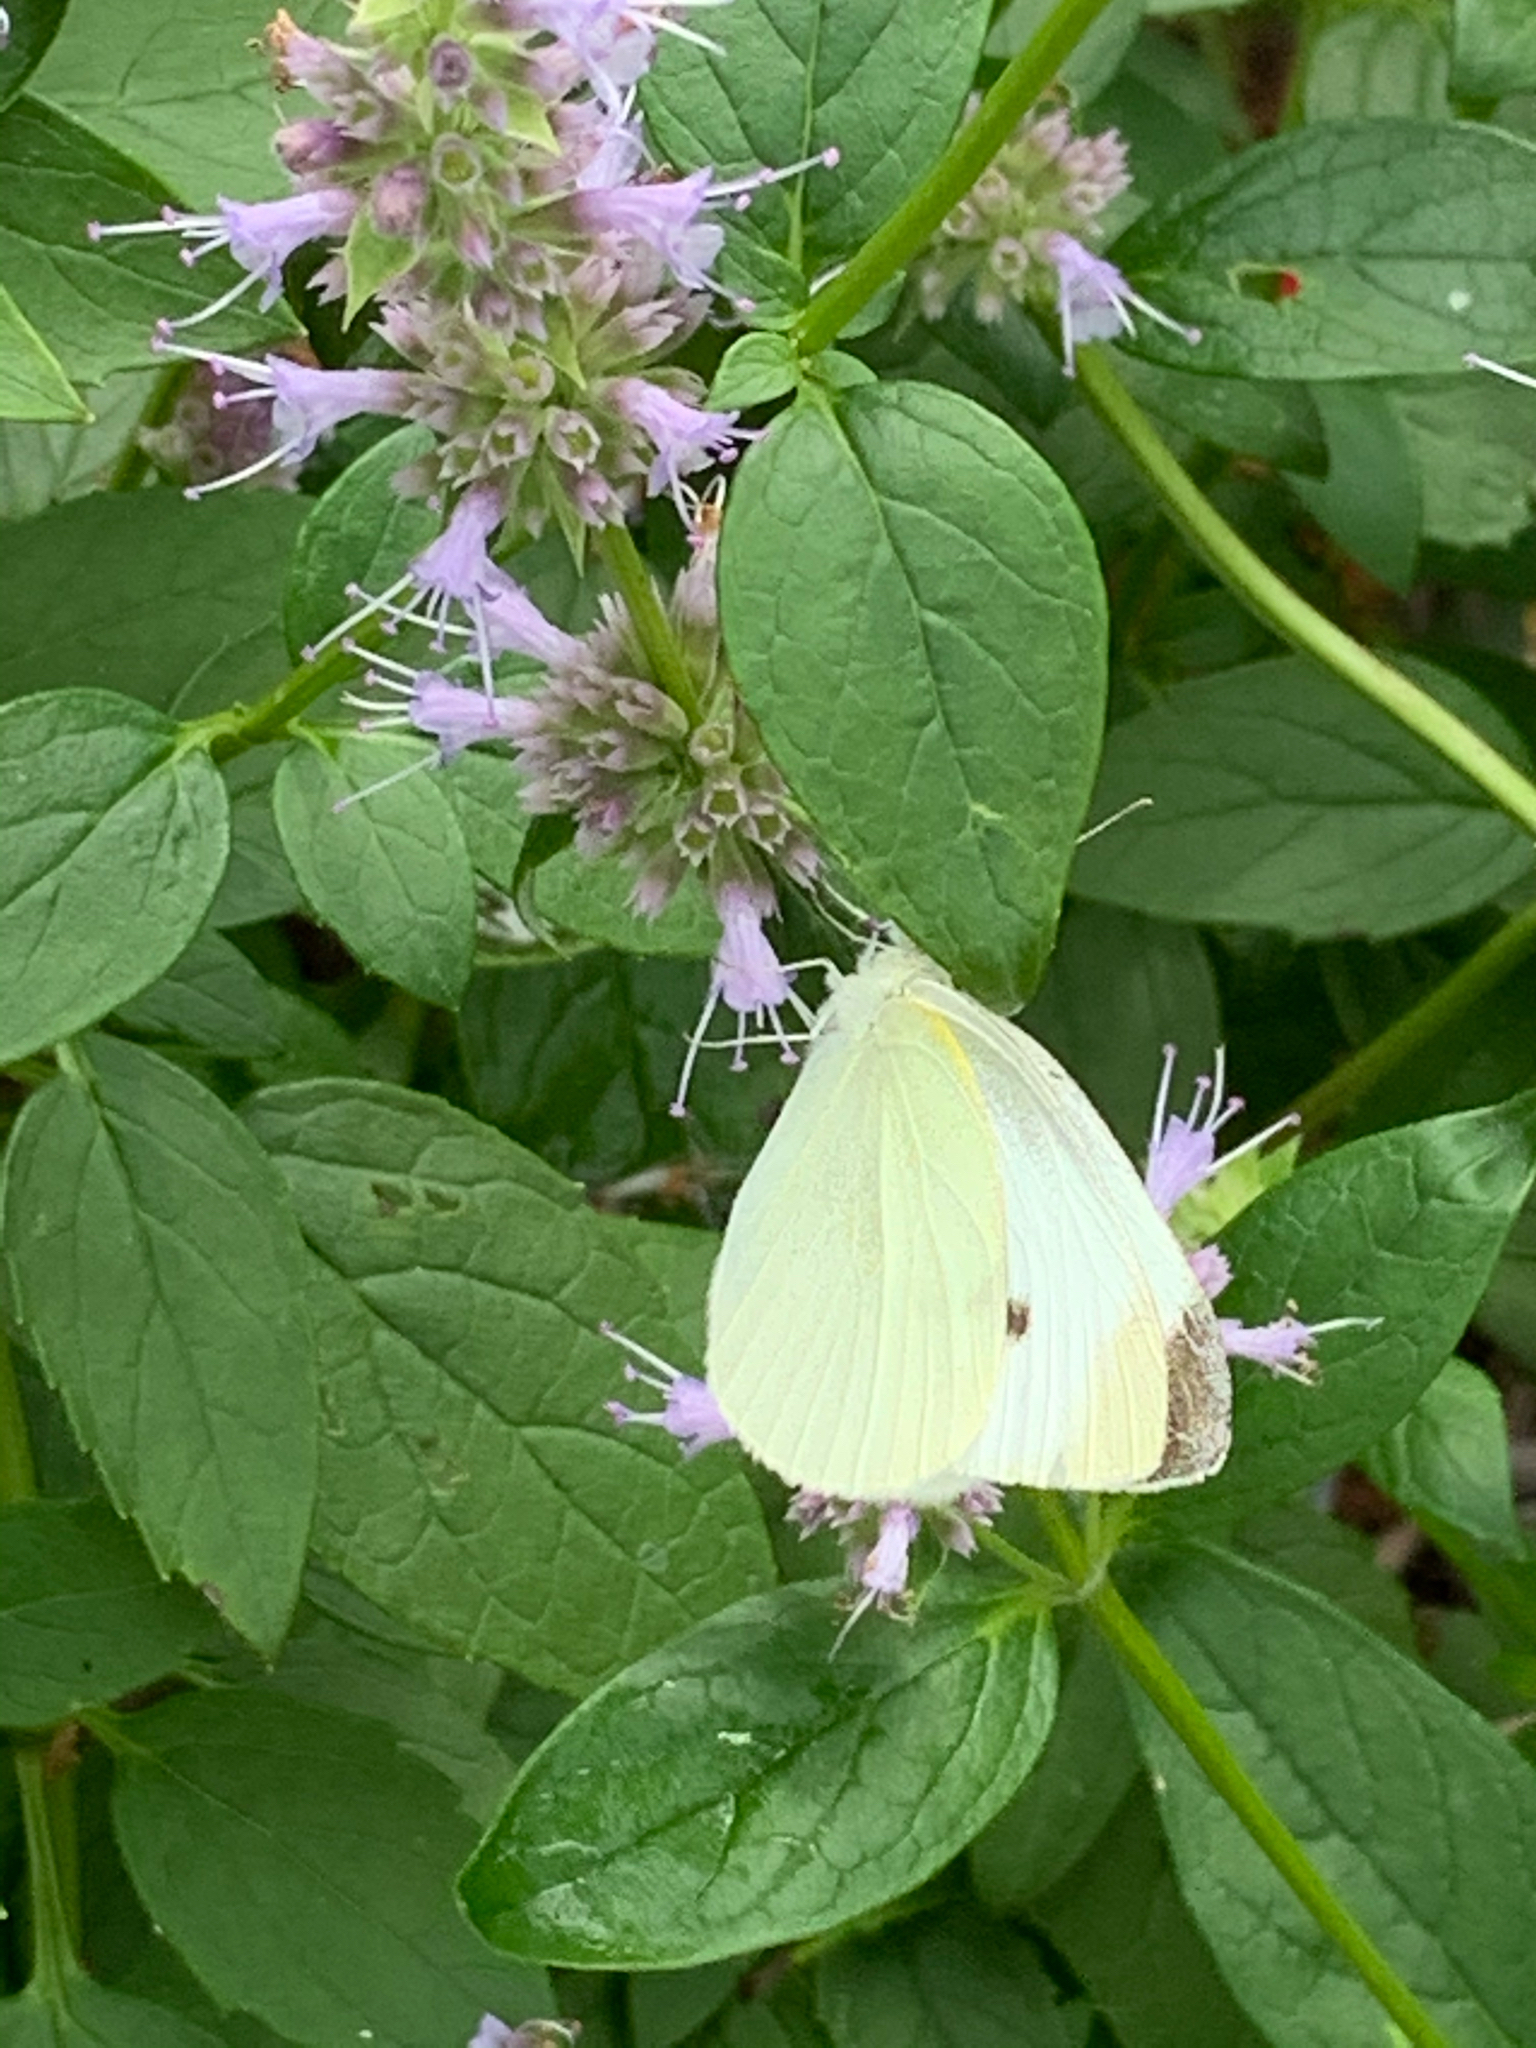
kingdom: Animalia
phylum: Arthropoda
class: Insecta
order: Lepidoptera
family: Pieridae
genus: Pieris
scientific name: Pieris rapae
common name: Small white
